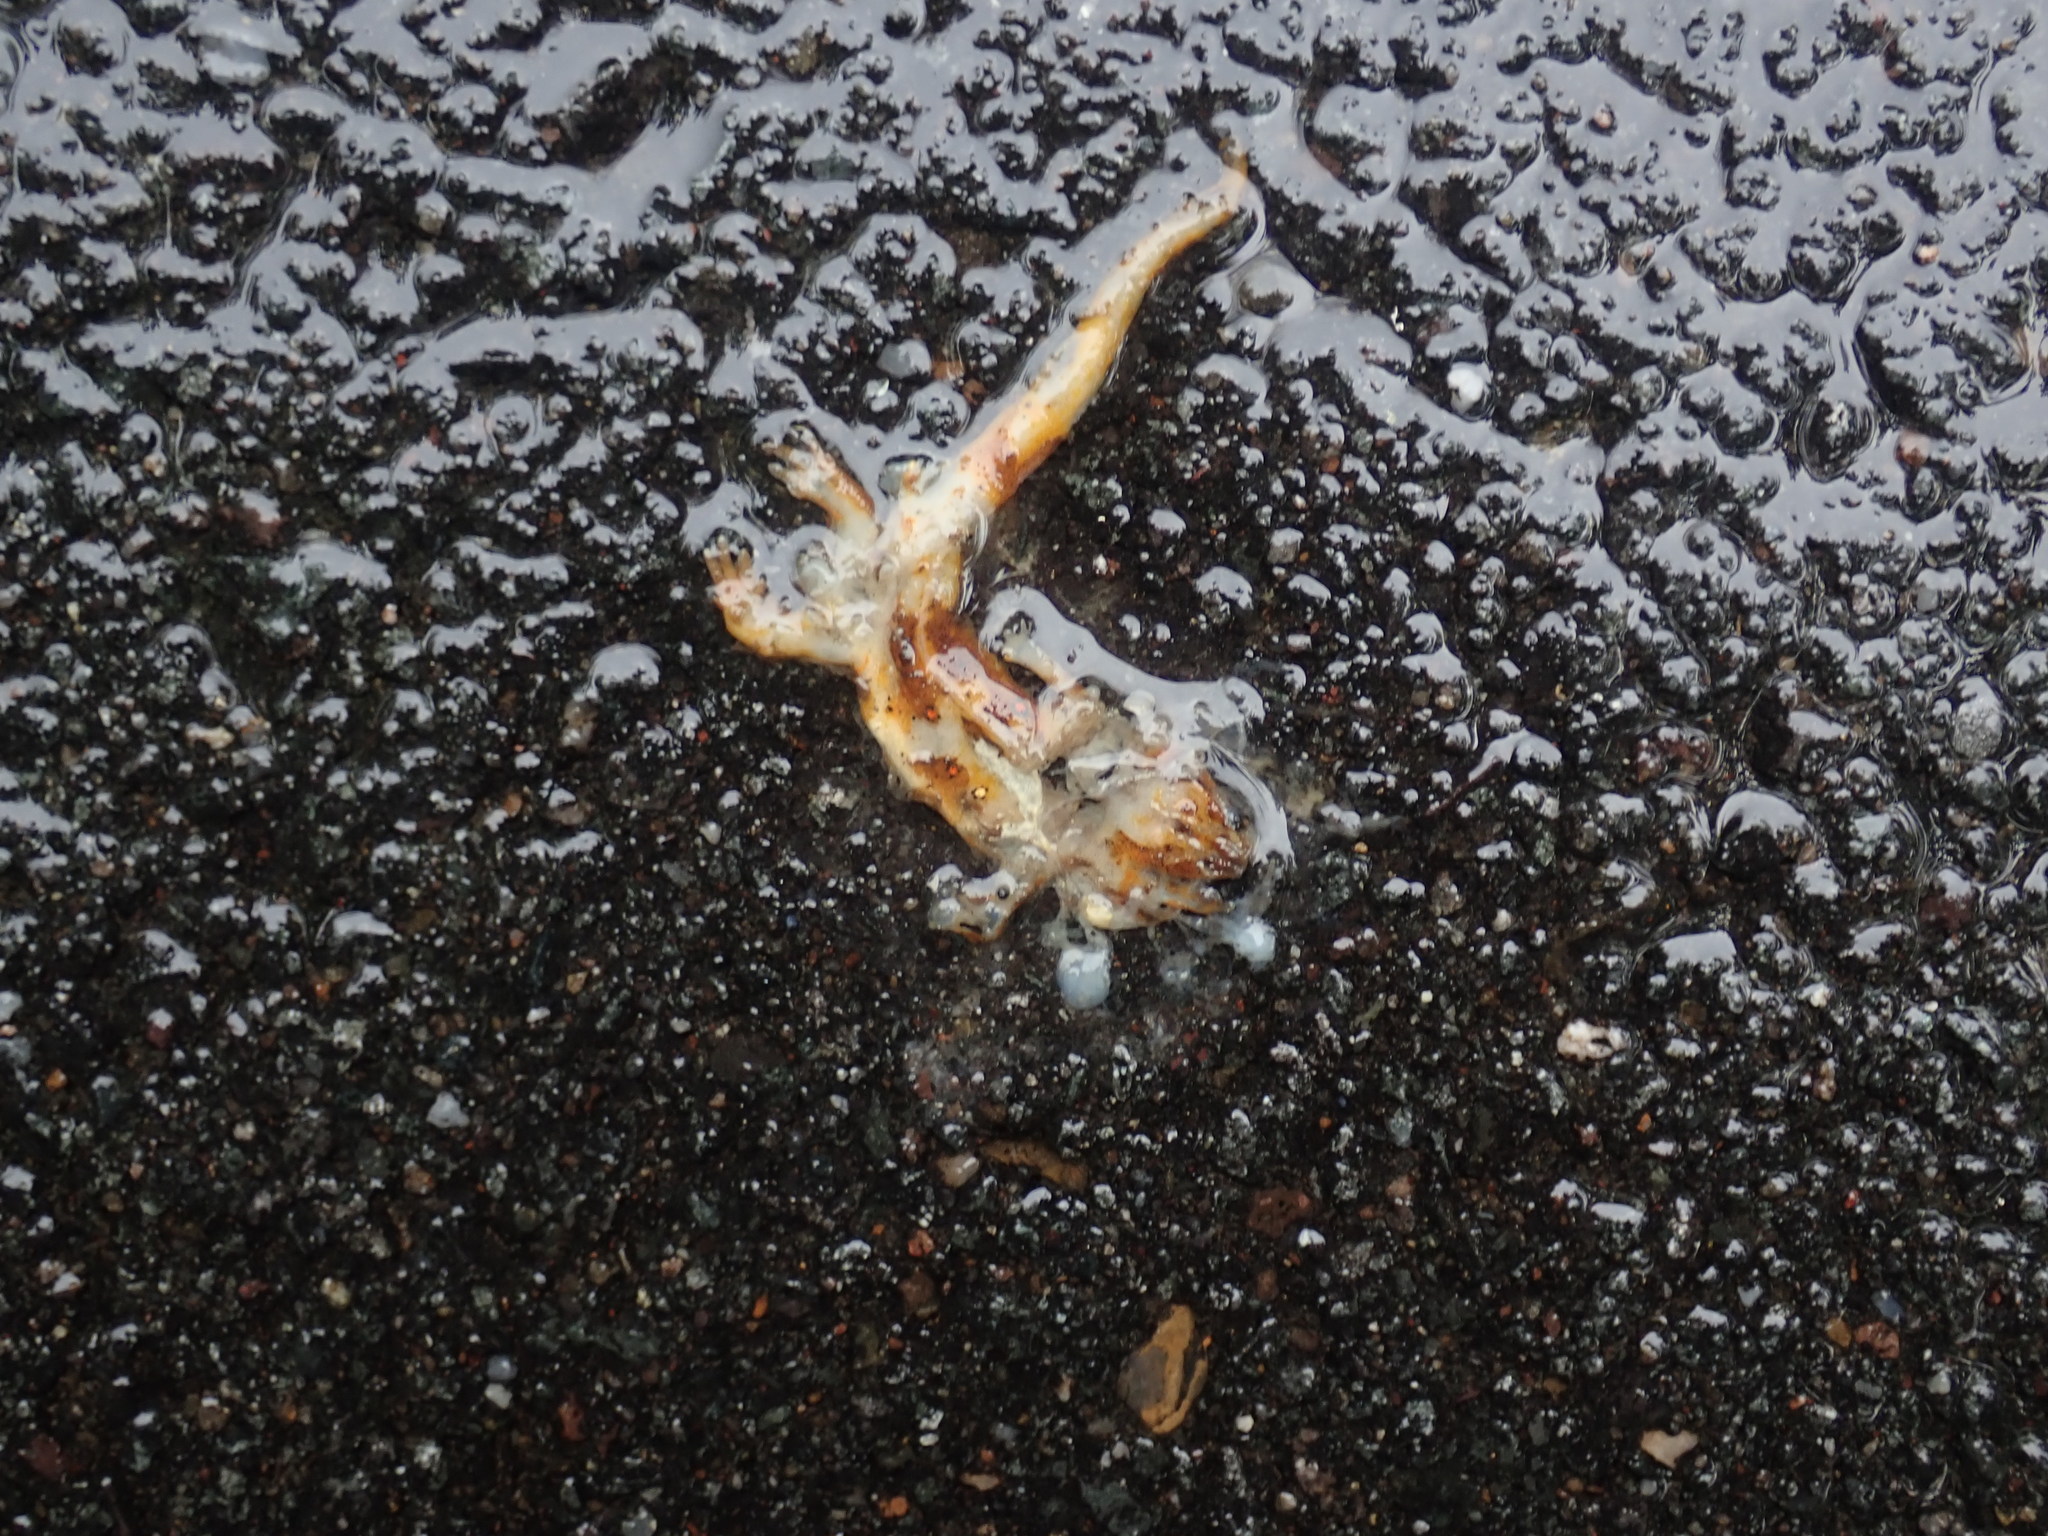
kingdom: Animalia
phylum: Chordata
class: Amphibia
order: Caudata
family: Salamandridae
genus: Notophthalmus
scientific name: Notophthalmus viridescens
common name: Eastern newt
